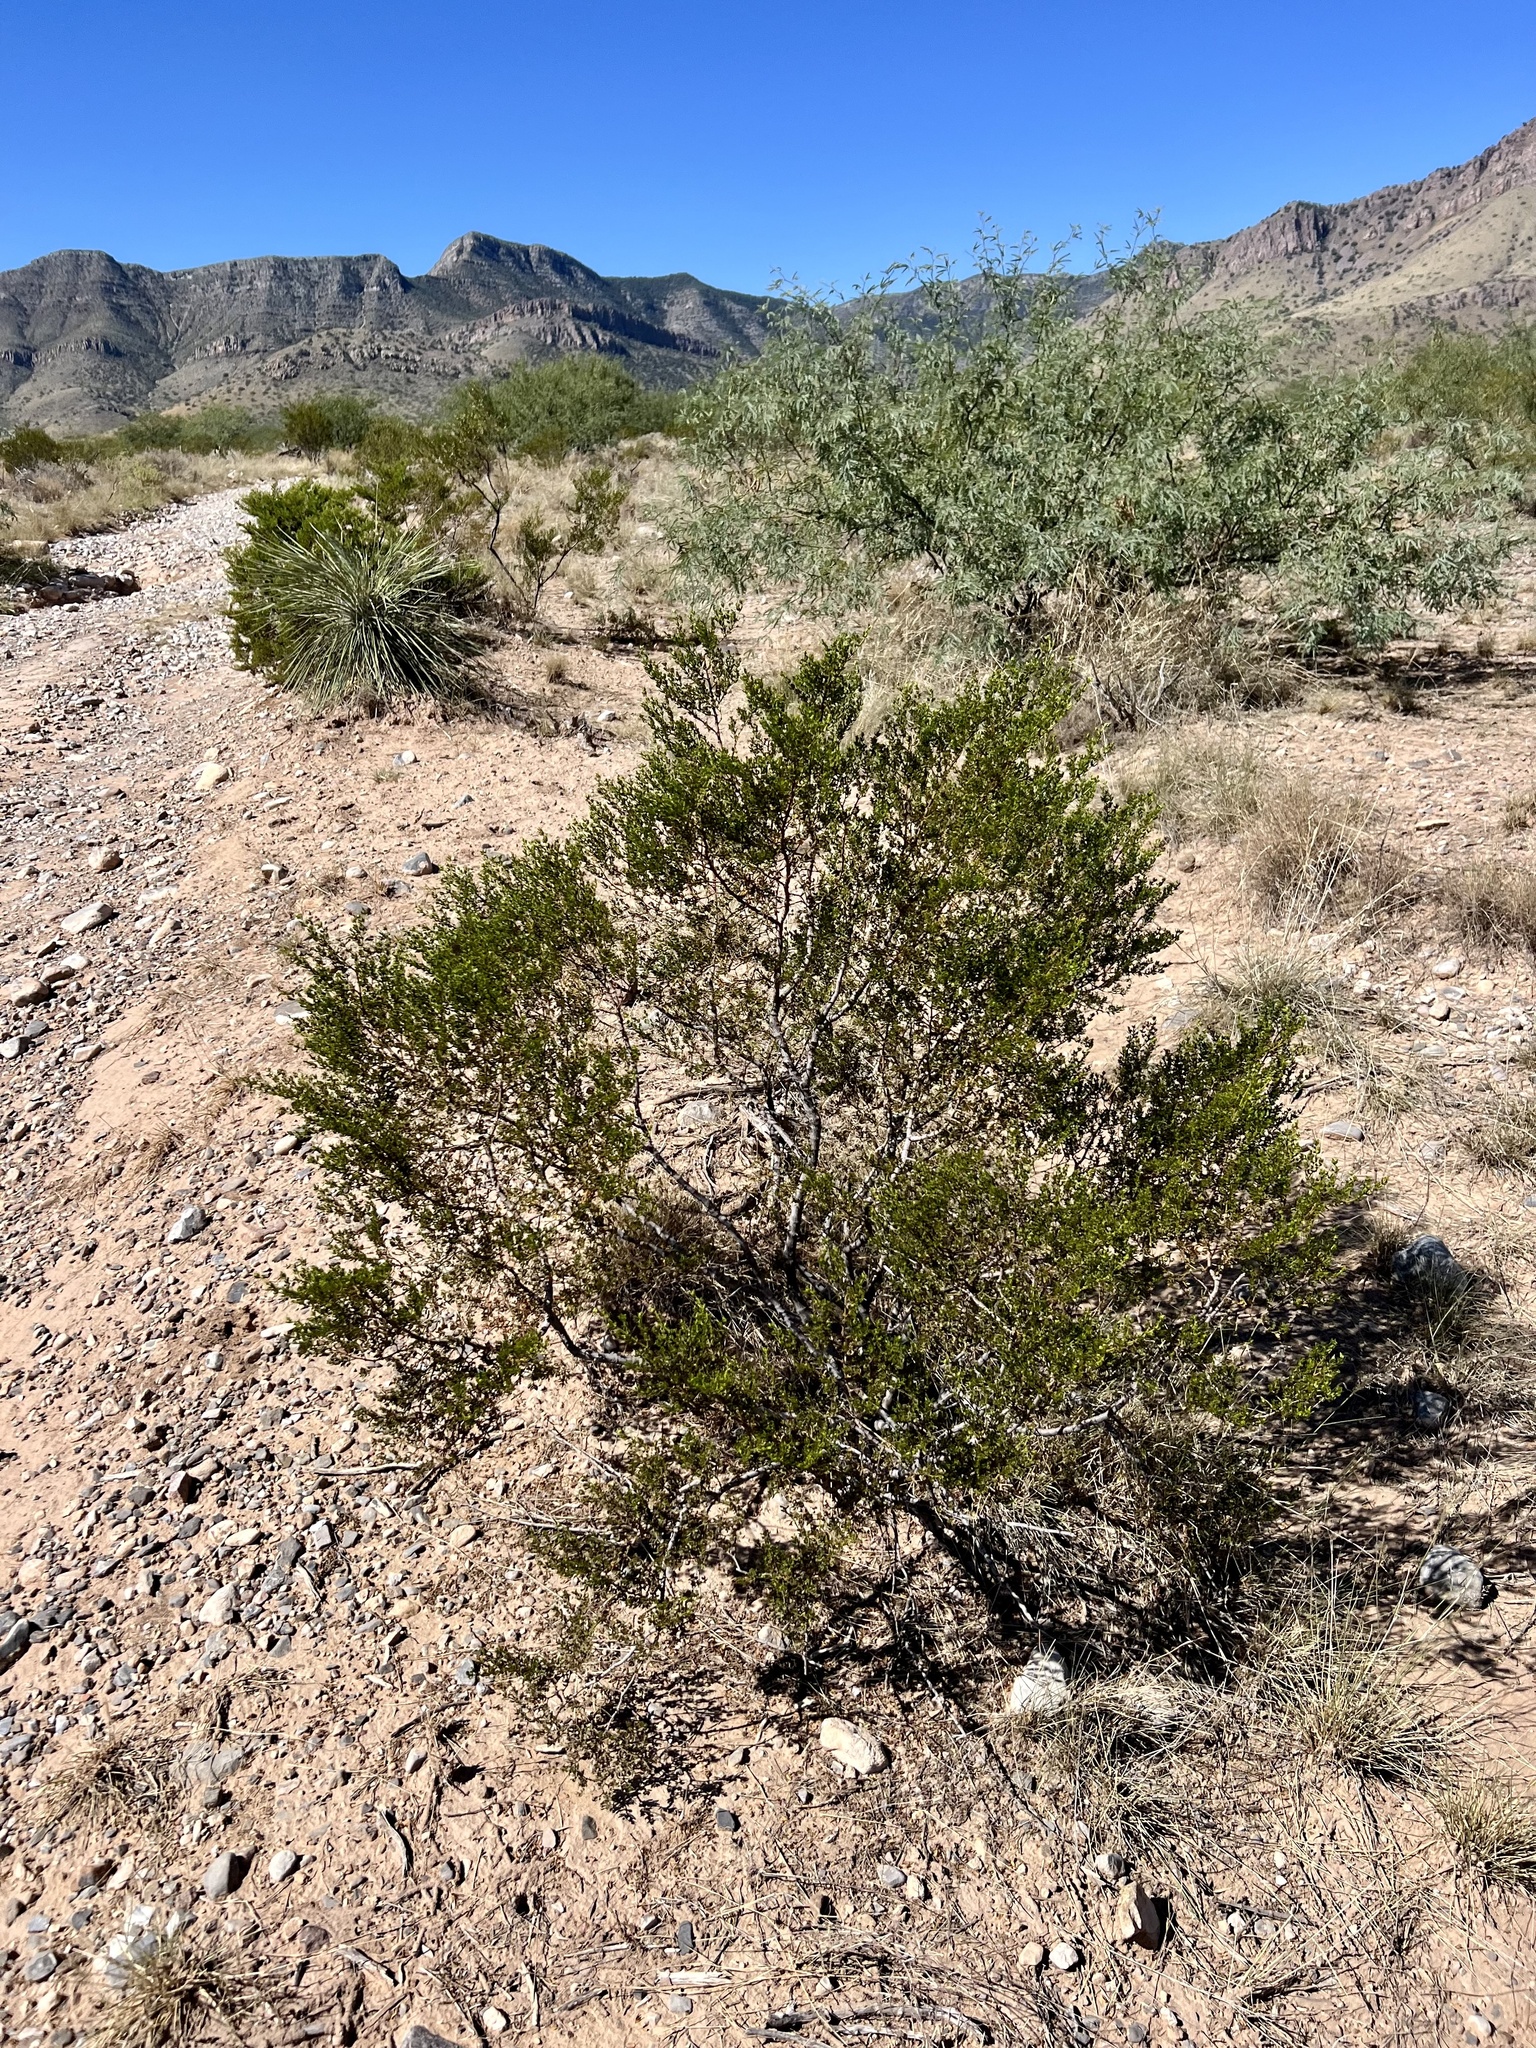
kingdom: Plantae
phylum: Tracheophyta
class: Magnoliopsida
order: Zygophyllales
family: Zygophyllaceae
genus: Larrea
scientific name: Larrea tridentata
